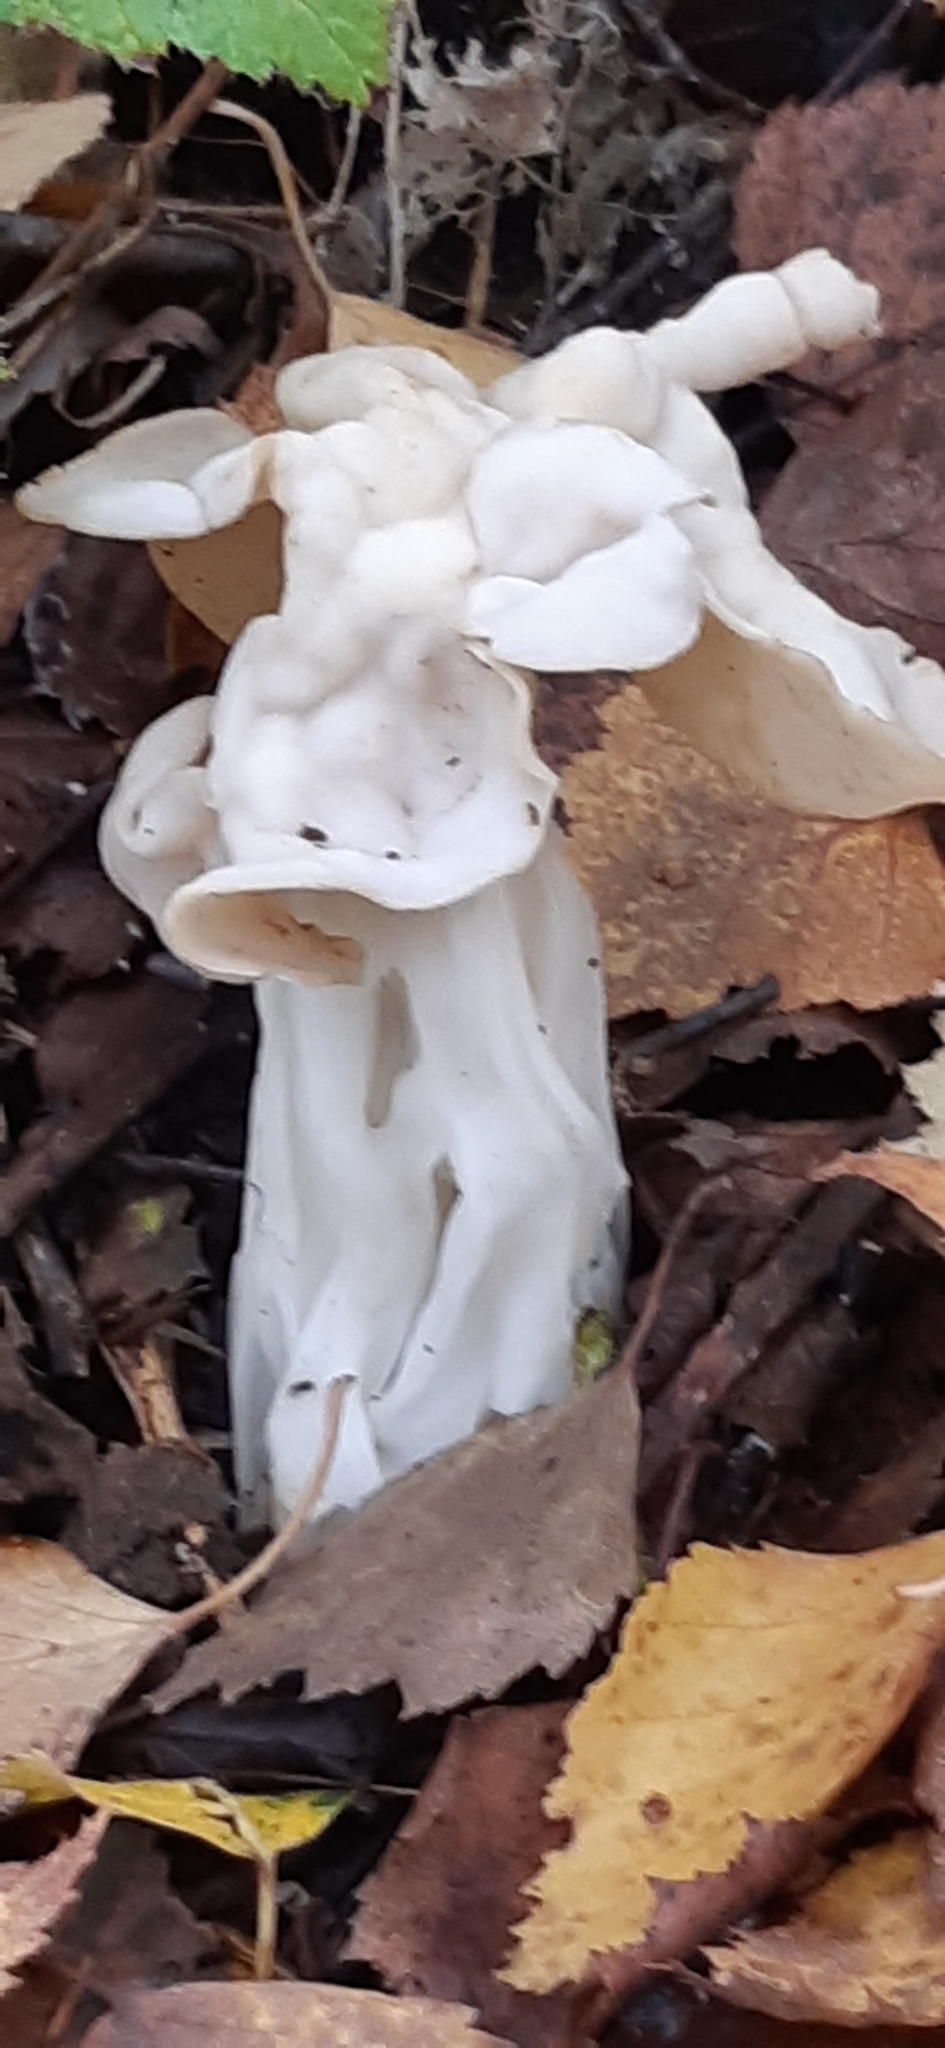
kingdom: Fungi
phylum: Ascomycota
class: Pezizomycetes
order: Pezizales
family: Helvellaceae
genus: Helvella
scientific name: Helvella crispa
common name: White saddle
